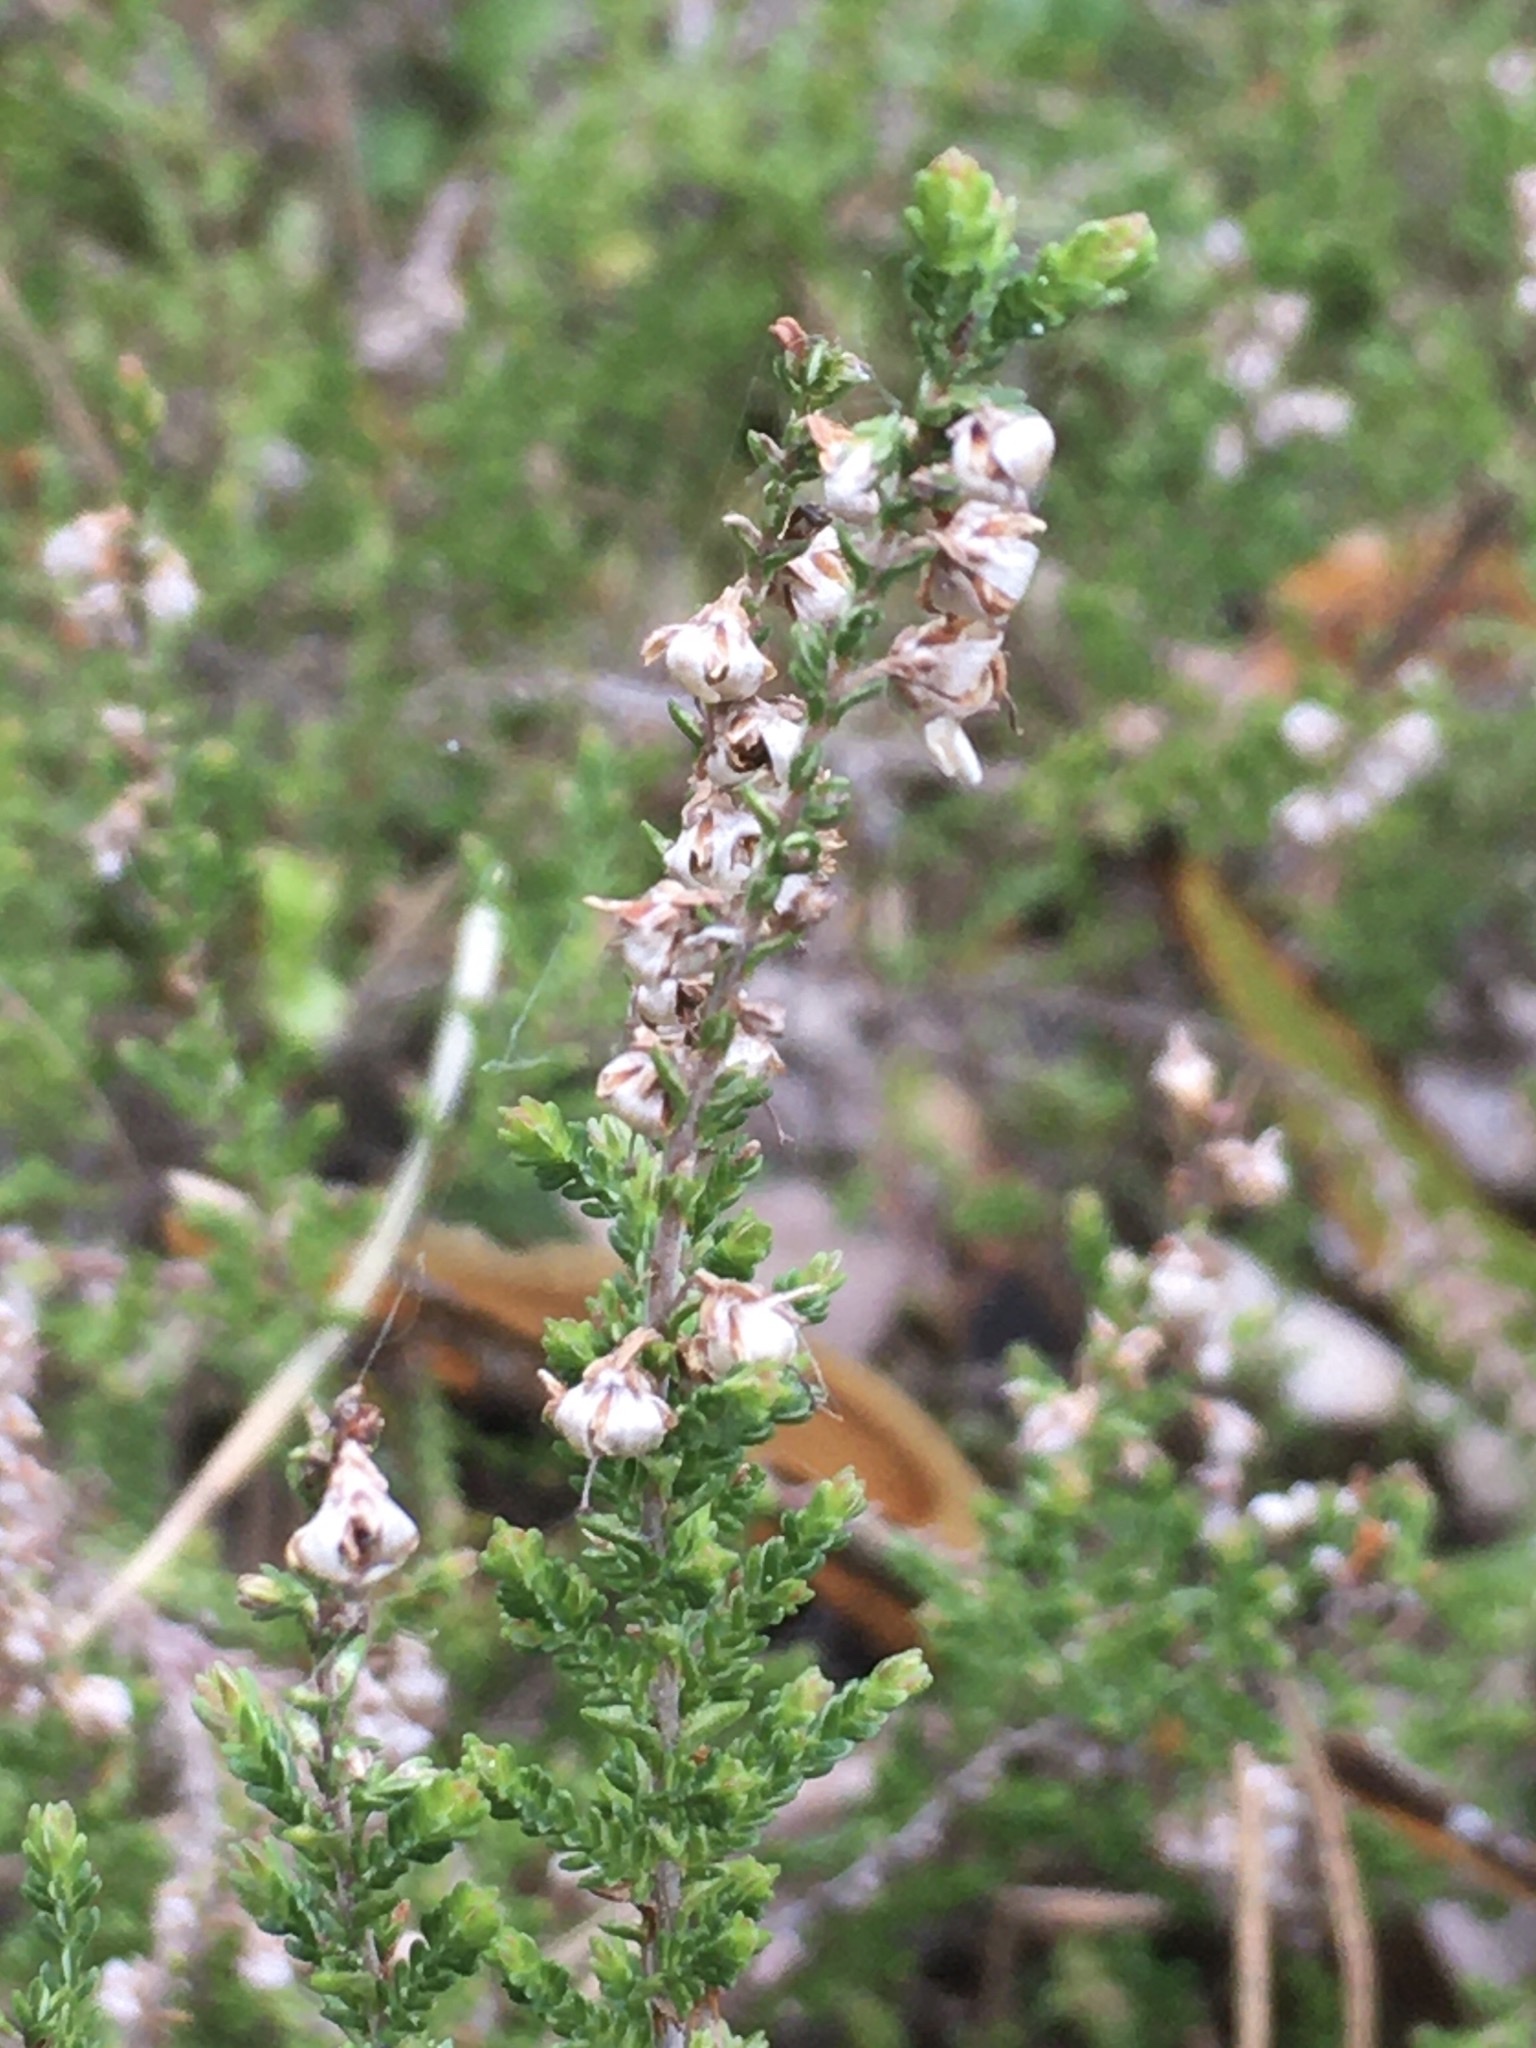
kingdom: Plantae
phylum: Tracheophyta
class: Magnoliopsida
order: Ericales
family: Ericaceae
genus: Calluna
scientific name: Calluna vulgaris
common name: Heather
